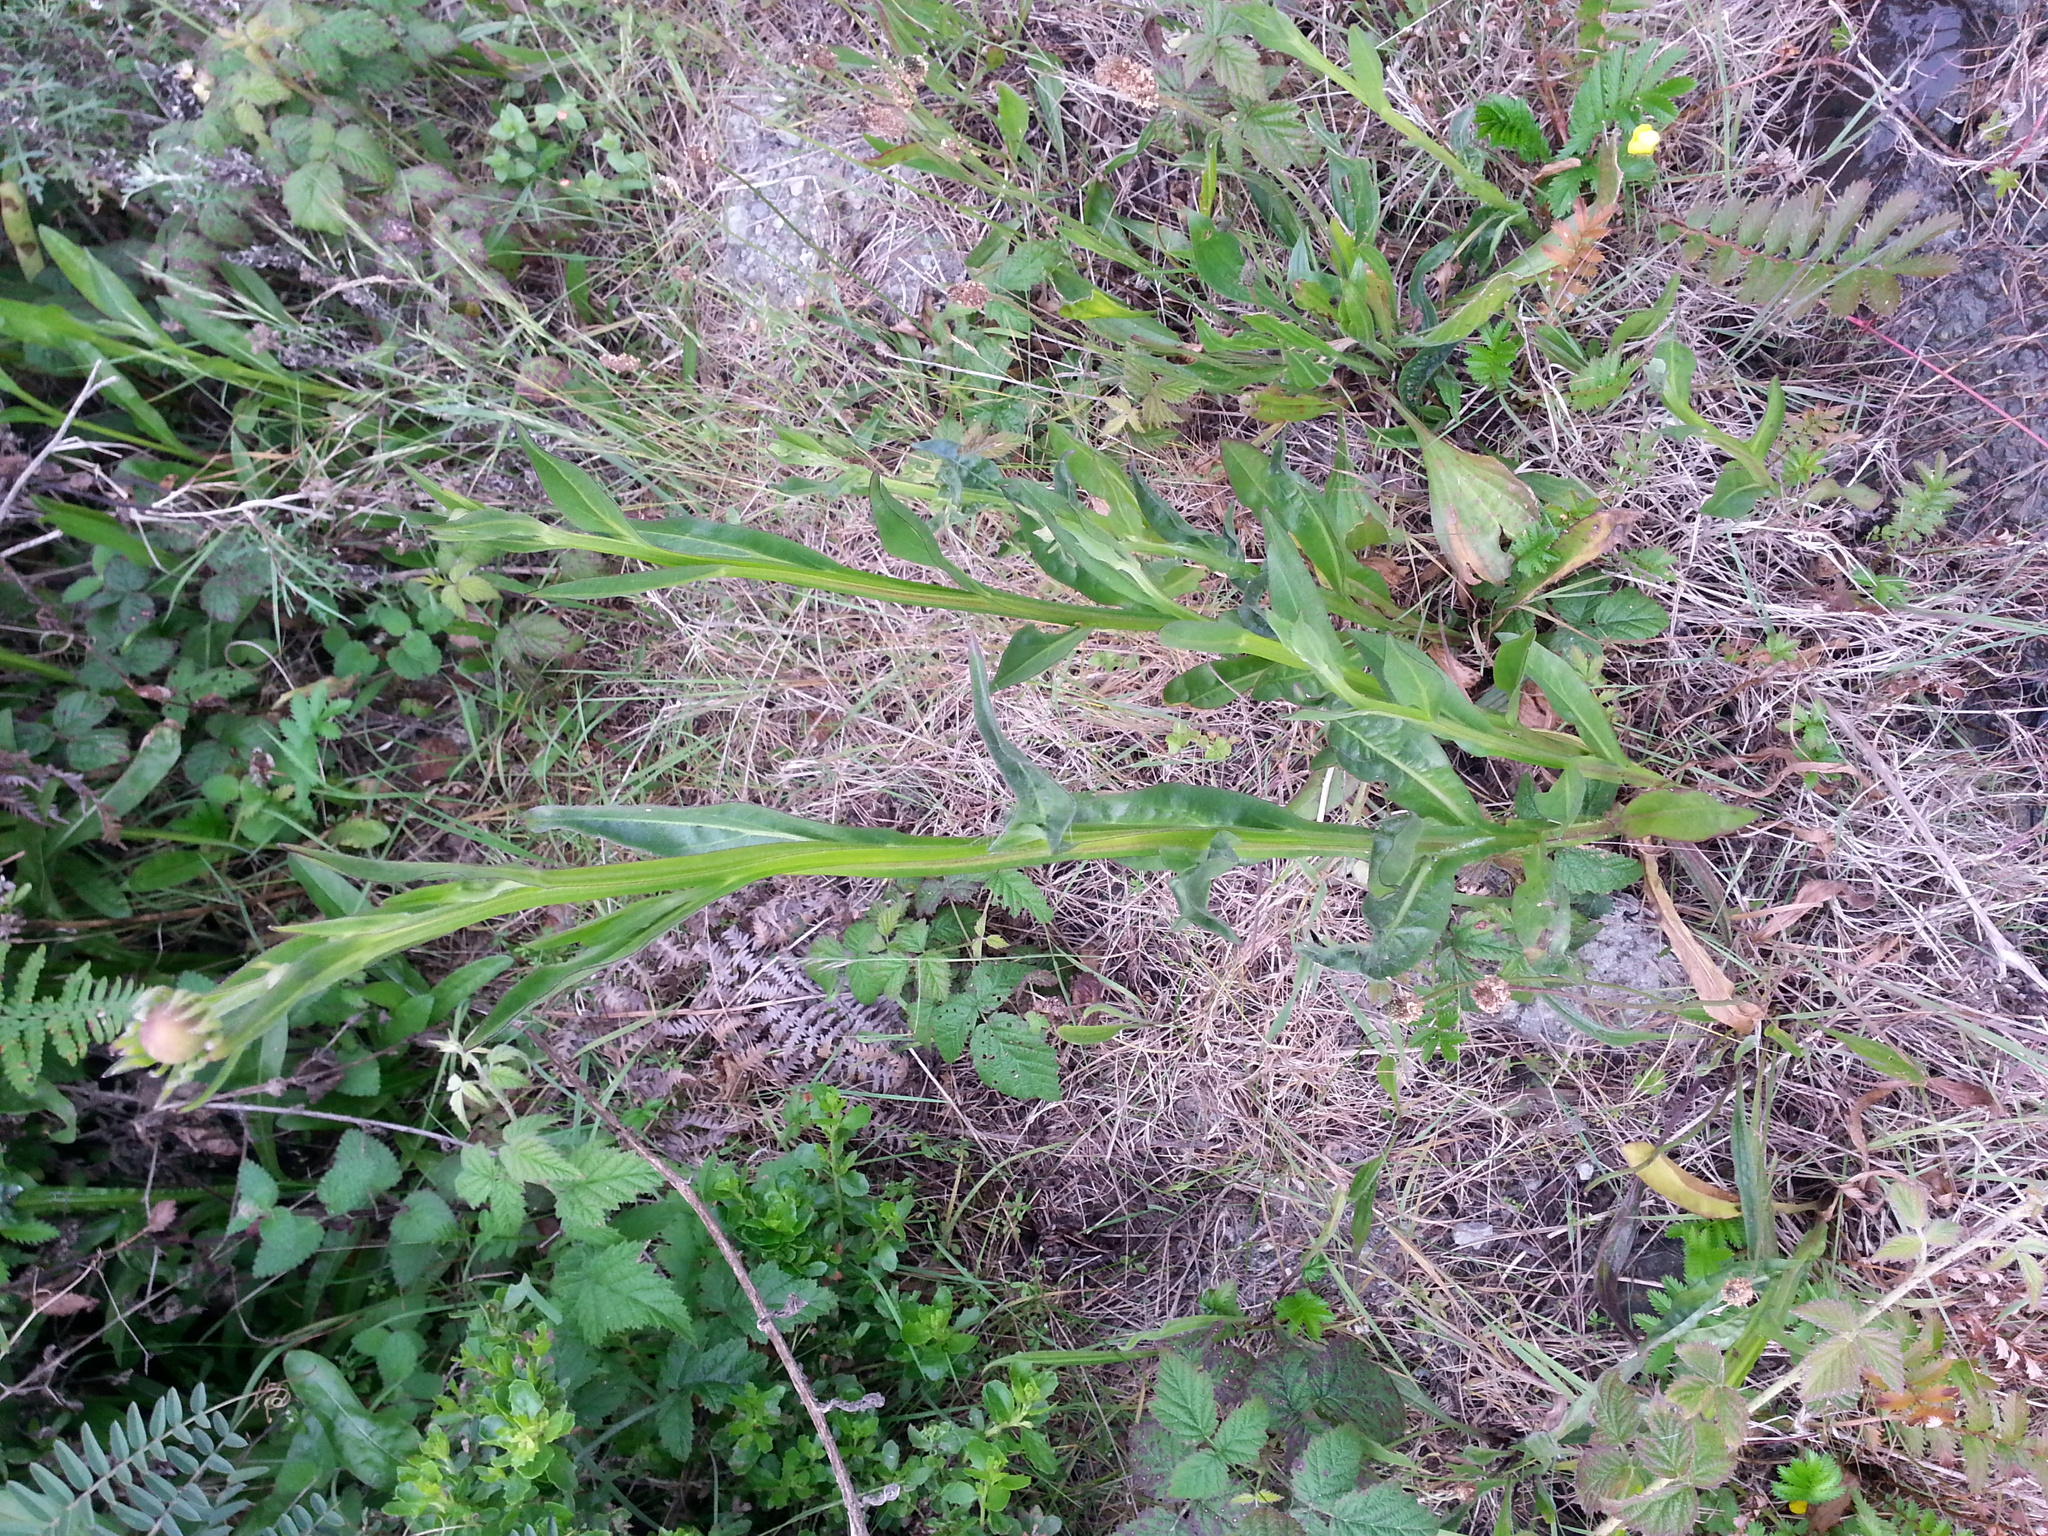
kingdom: Plantae
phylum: Tracheophyta
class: Magnoliopsida
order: Asterales
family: Asteraceae
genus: Helenium
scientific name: Helenium puberulum
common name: Sneezewort
